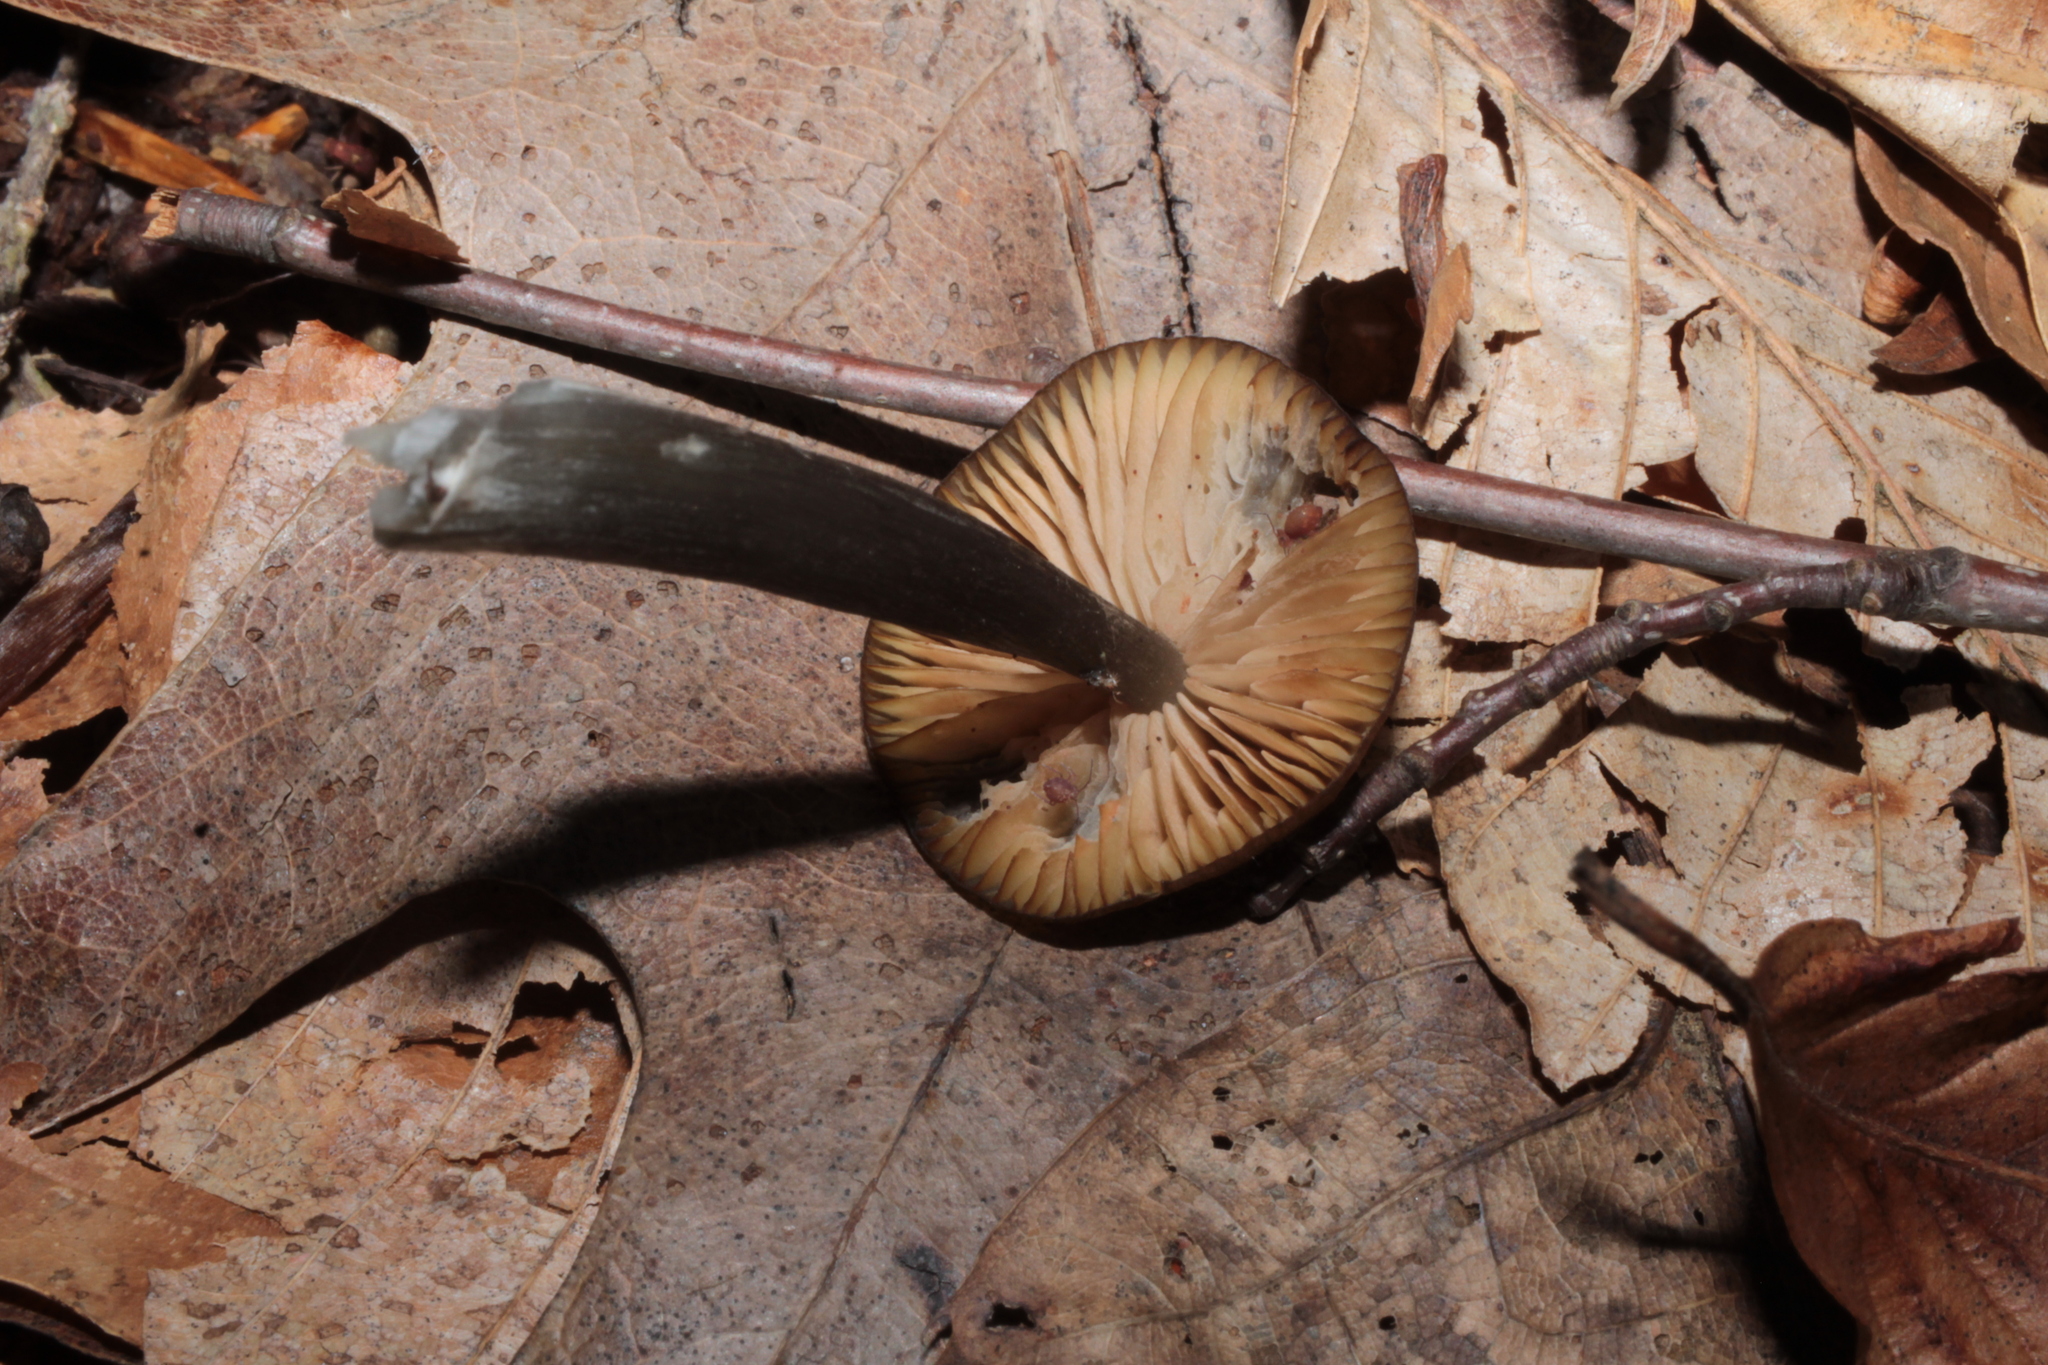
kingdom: Fungi
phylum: Basidiomycota
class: Agaricomycetes
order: Agaricales
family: Entolomataceae
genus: Entoloma
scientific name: Entoloma fuscosquamosum
